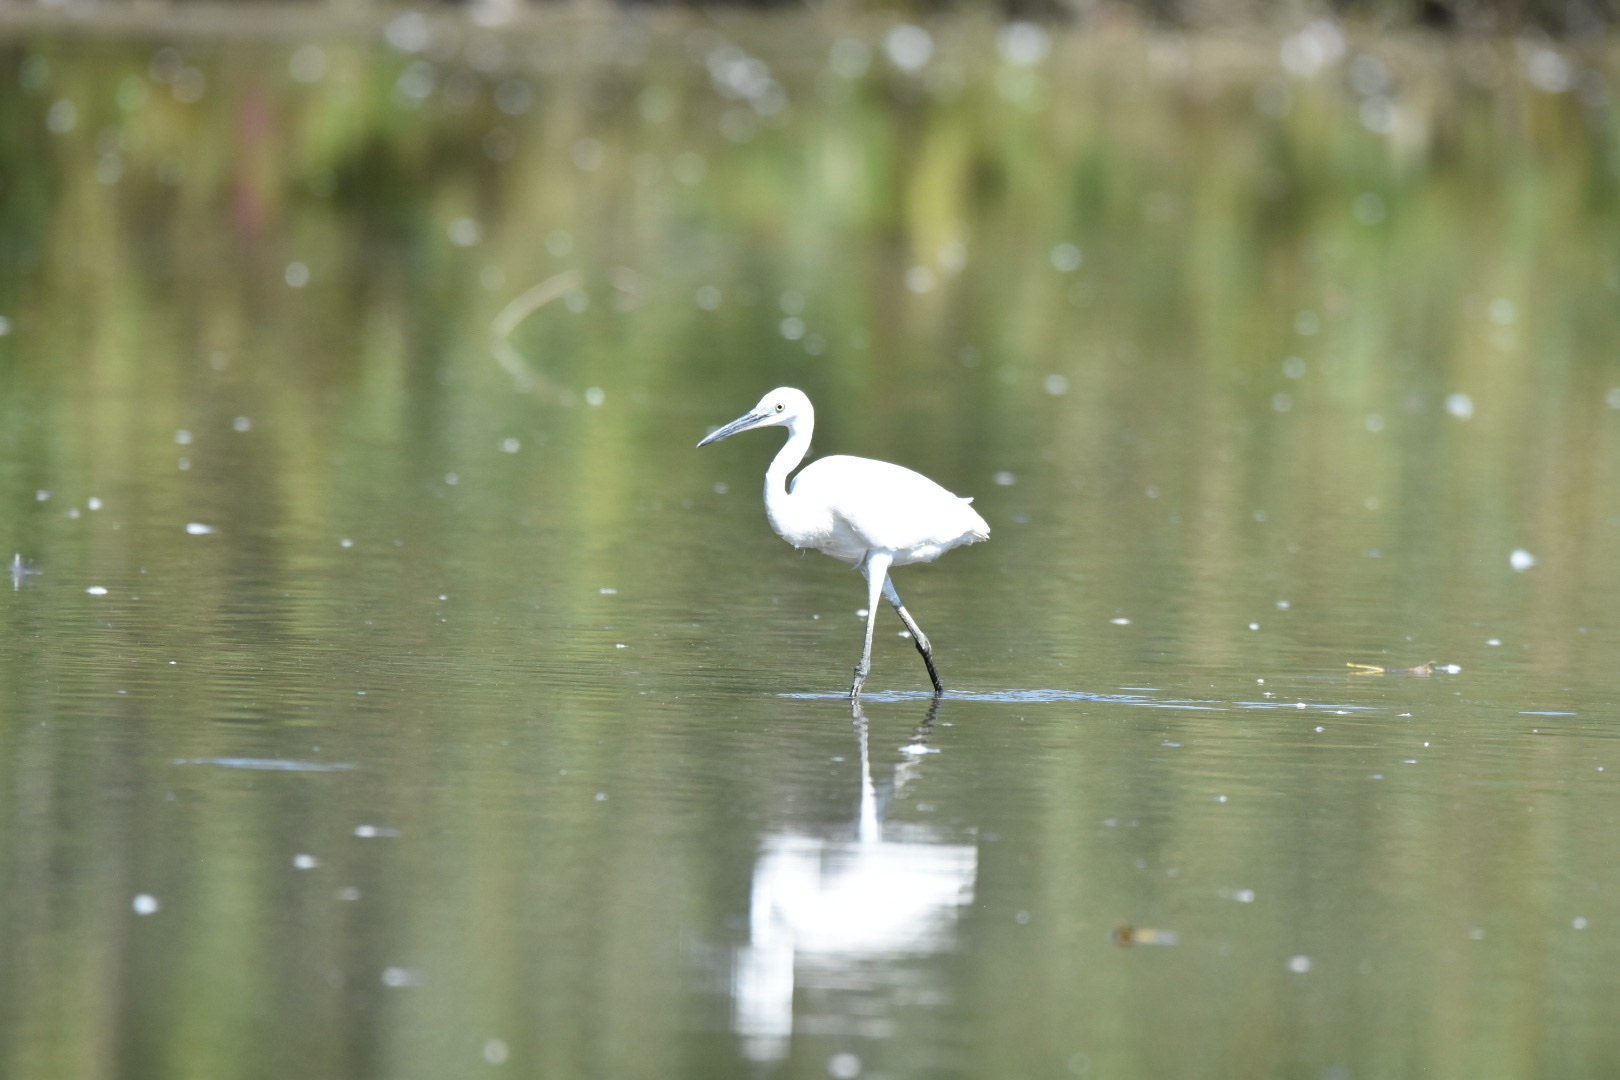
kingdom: Animalia
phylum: Chordata
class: Aves
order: Pelecaniformes
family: Ardeidae
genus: Egretta
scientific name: Egretta garzetta
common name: Little egret
